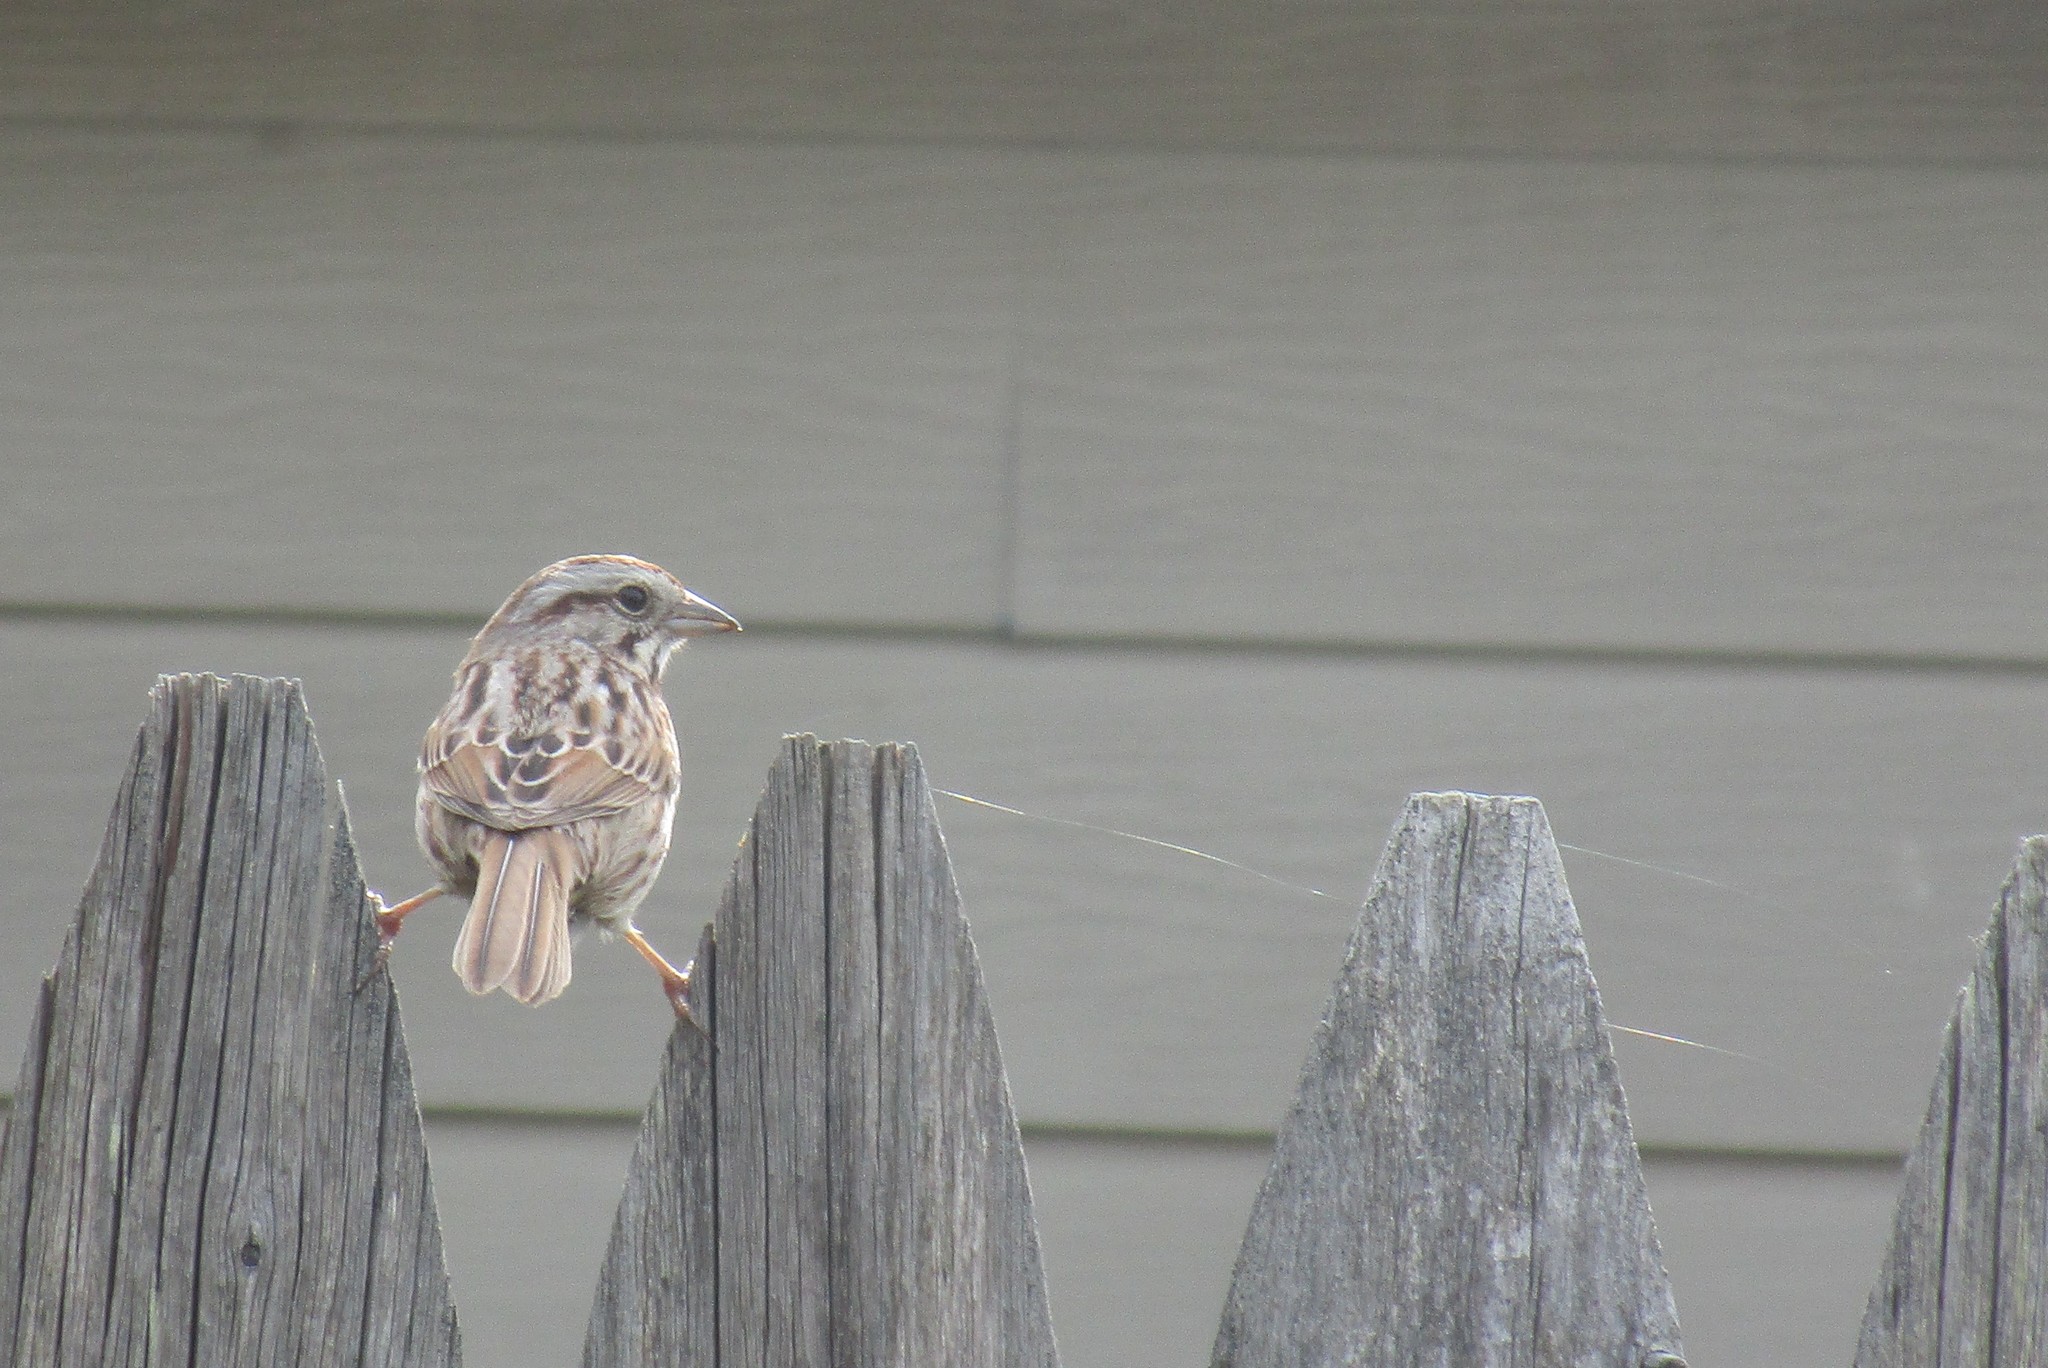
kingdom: Animalia
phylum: Chordata
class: Aves
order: Passeriformes
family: Passerellidae
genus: Melospiza
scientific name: Melospiza melodia
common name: Song sparrow
